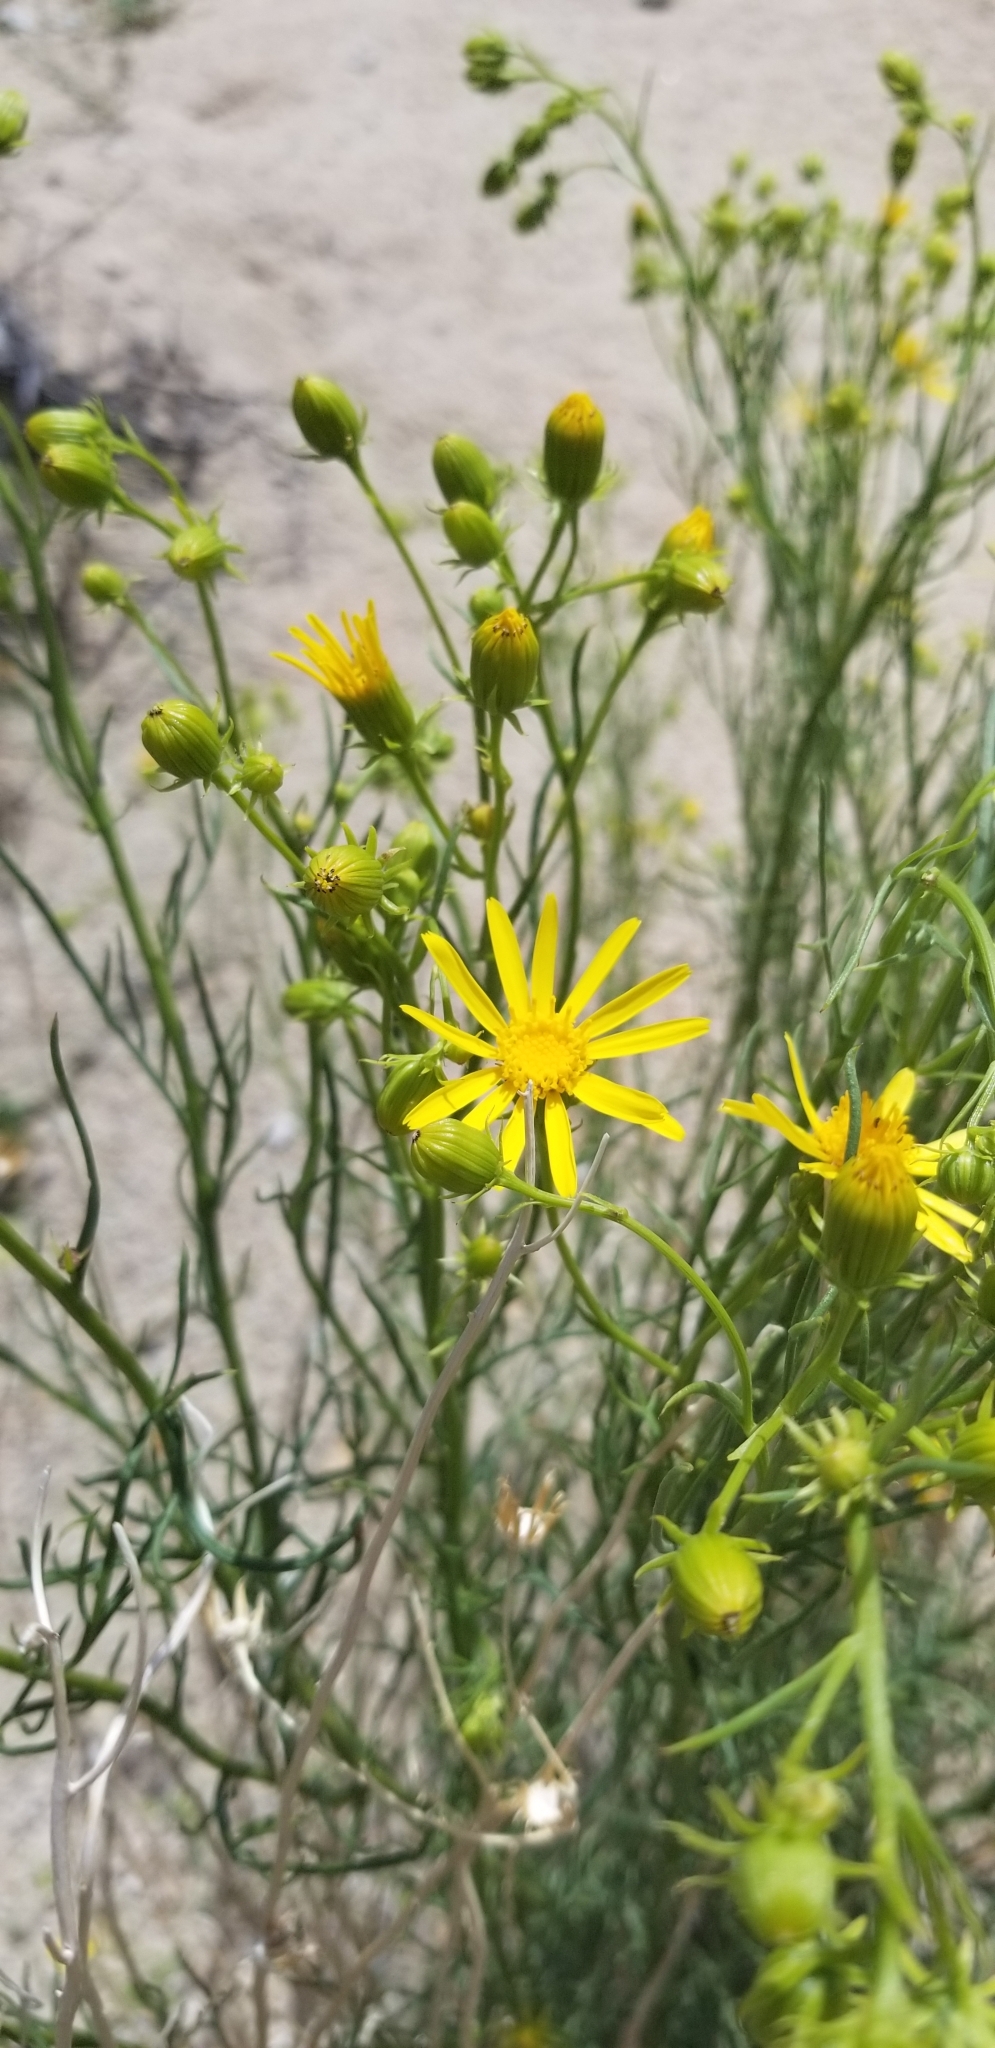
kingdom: Plantae
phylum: Tracheophyta
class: Magnoliopsida
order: Asterales
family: Asteraceae
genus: Senecio
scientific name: Senecio flaccidus
